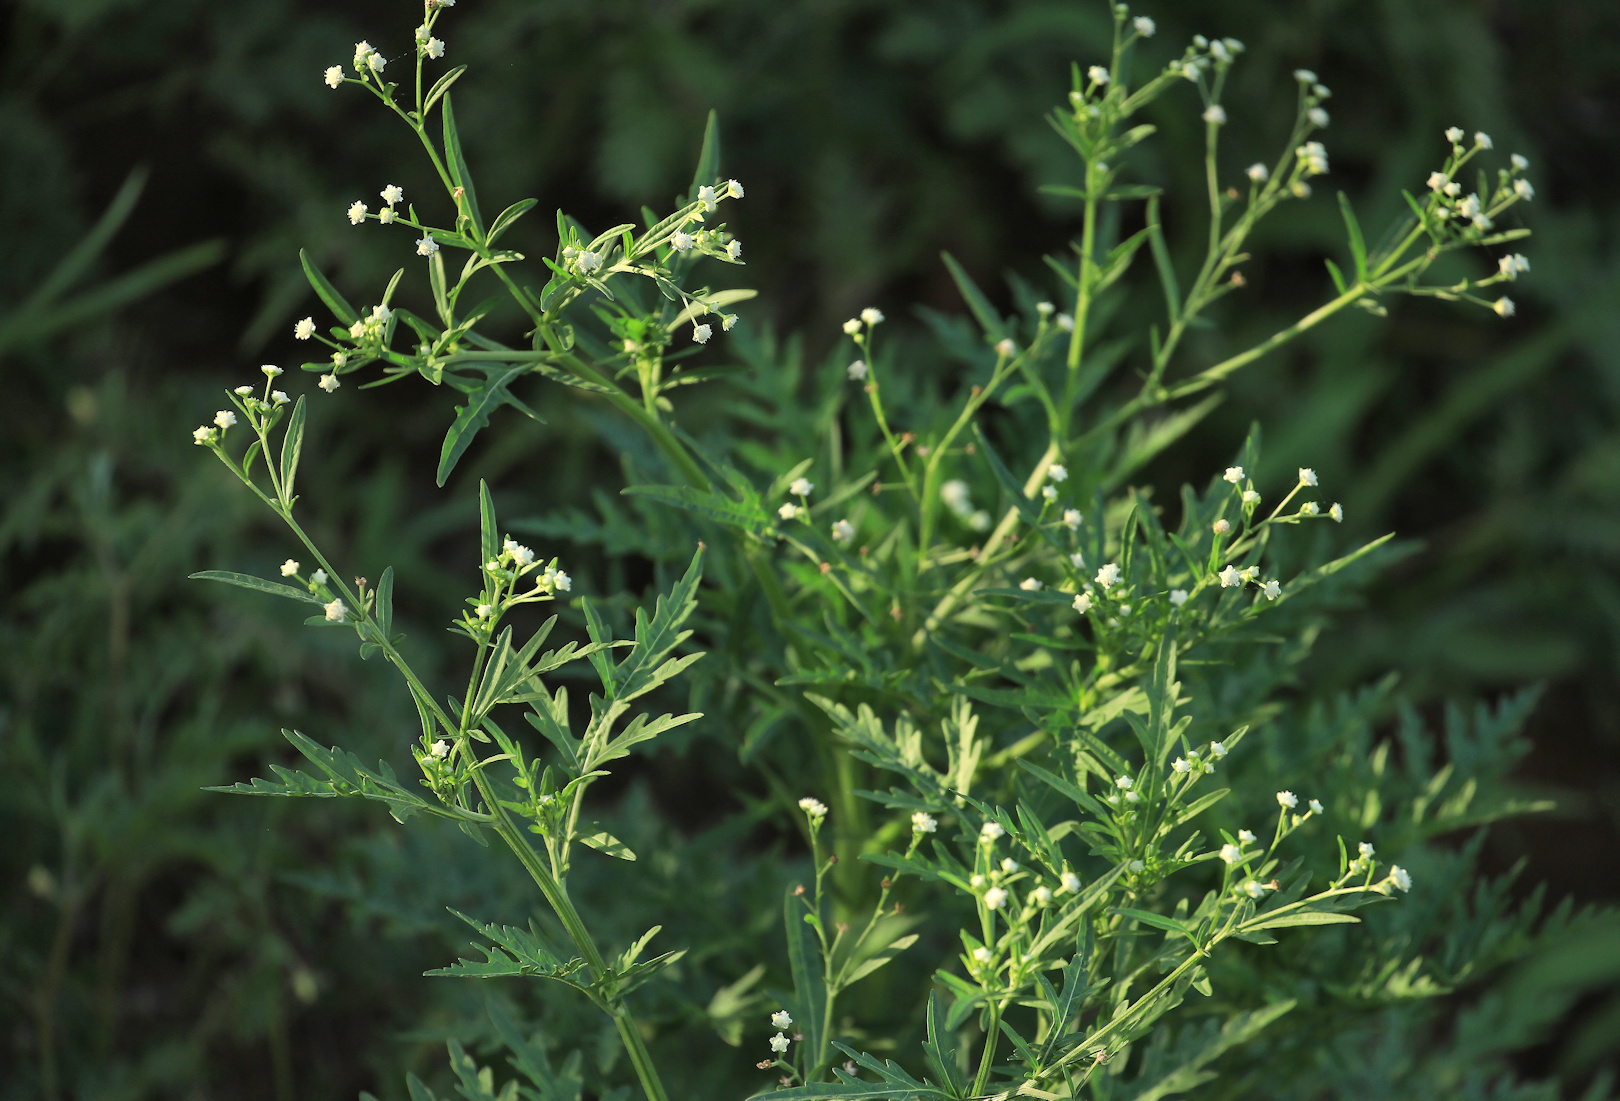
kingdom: Plantae
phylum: Tracheophyta
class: Magnoliopsida
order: Asterales
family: Asteraceae
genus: Parthenium
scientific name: Parthenium hysterophorus
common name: Santa maria feverfew
